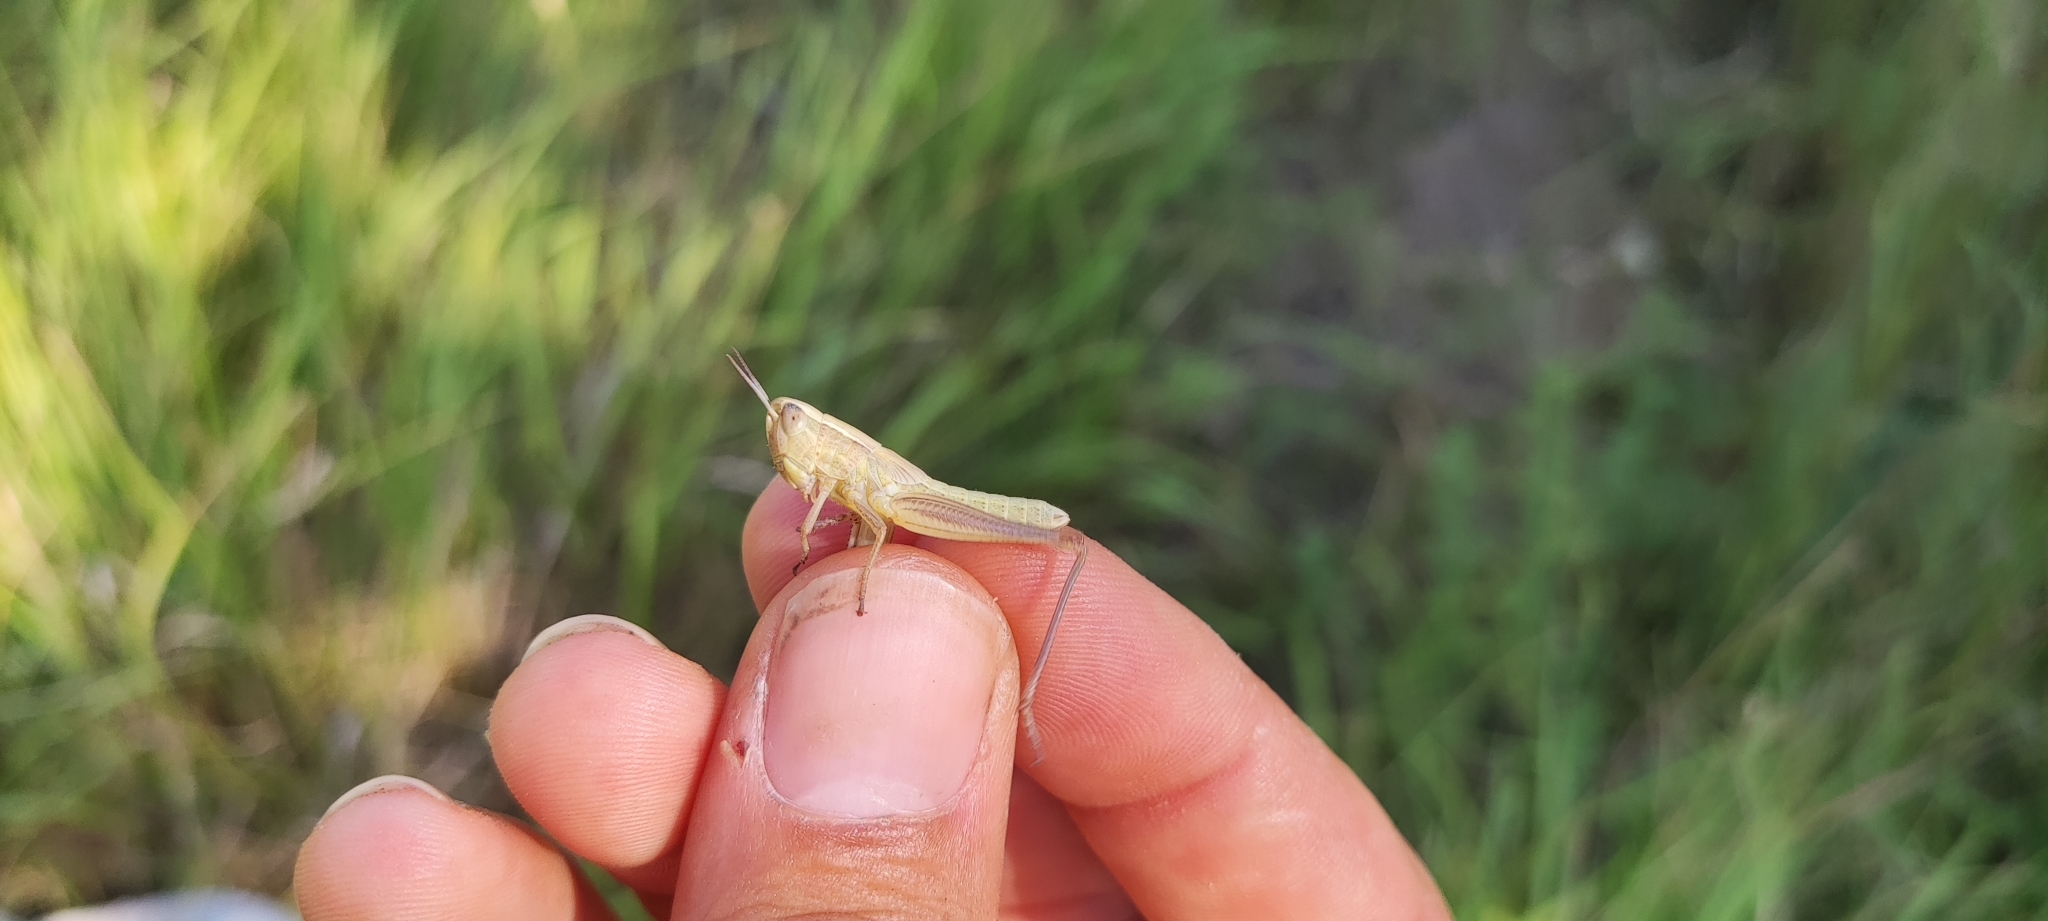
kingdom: Animalia
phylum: Arthropoda
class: Insecta
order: Orthoptera
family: Acrididae
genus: Euchorthippus
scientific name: Euchorthippus declivus
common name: Common straw grasshopper
